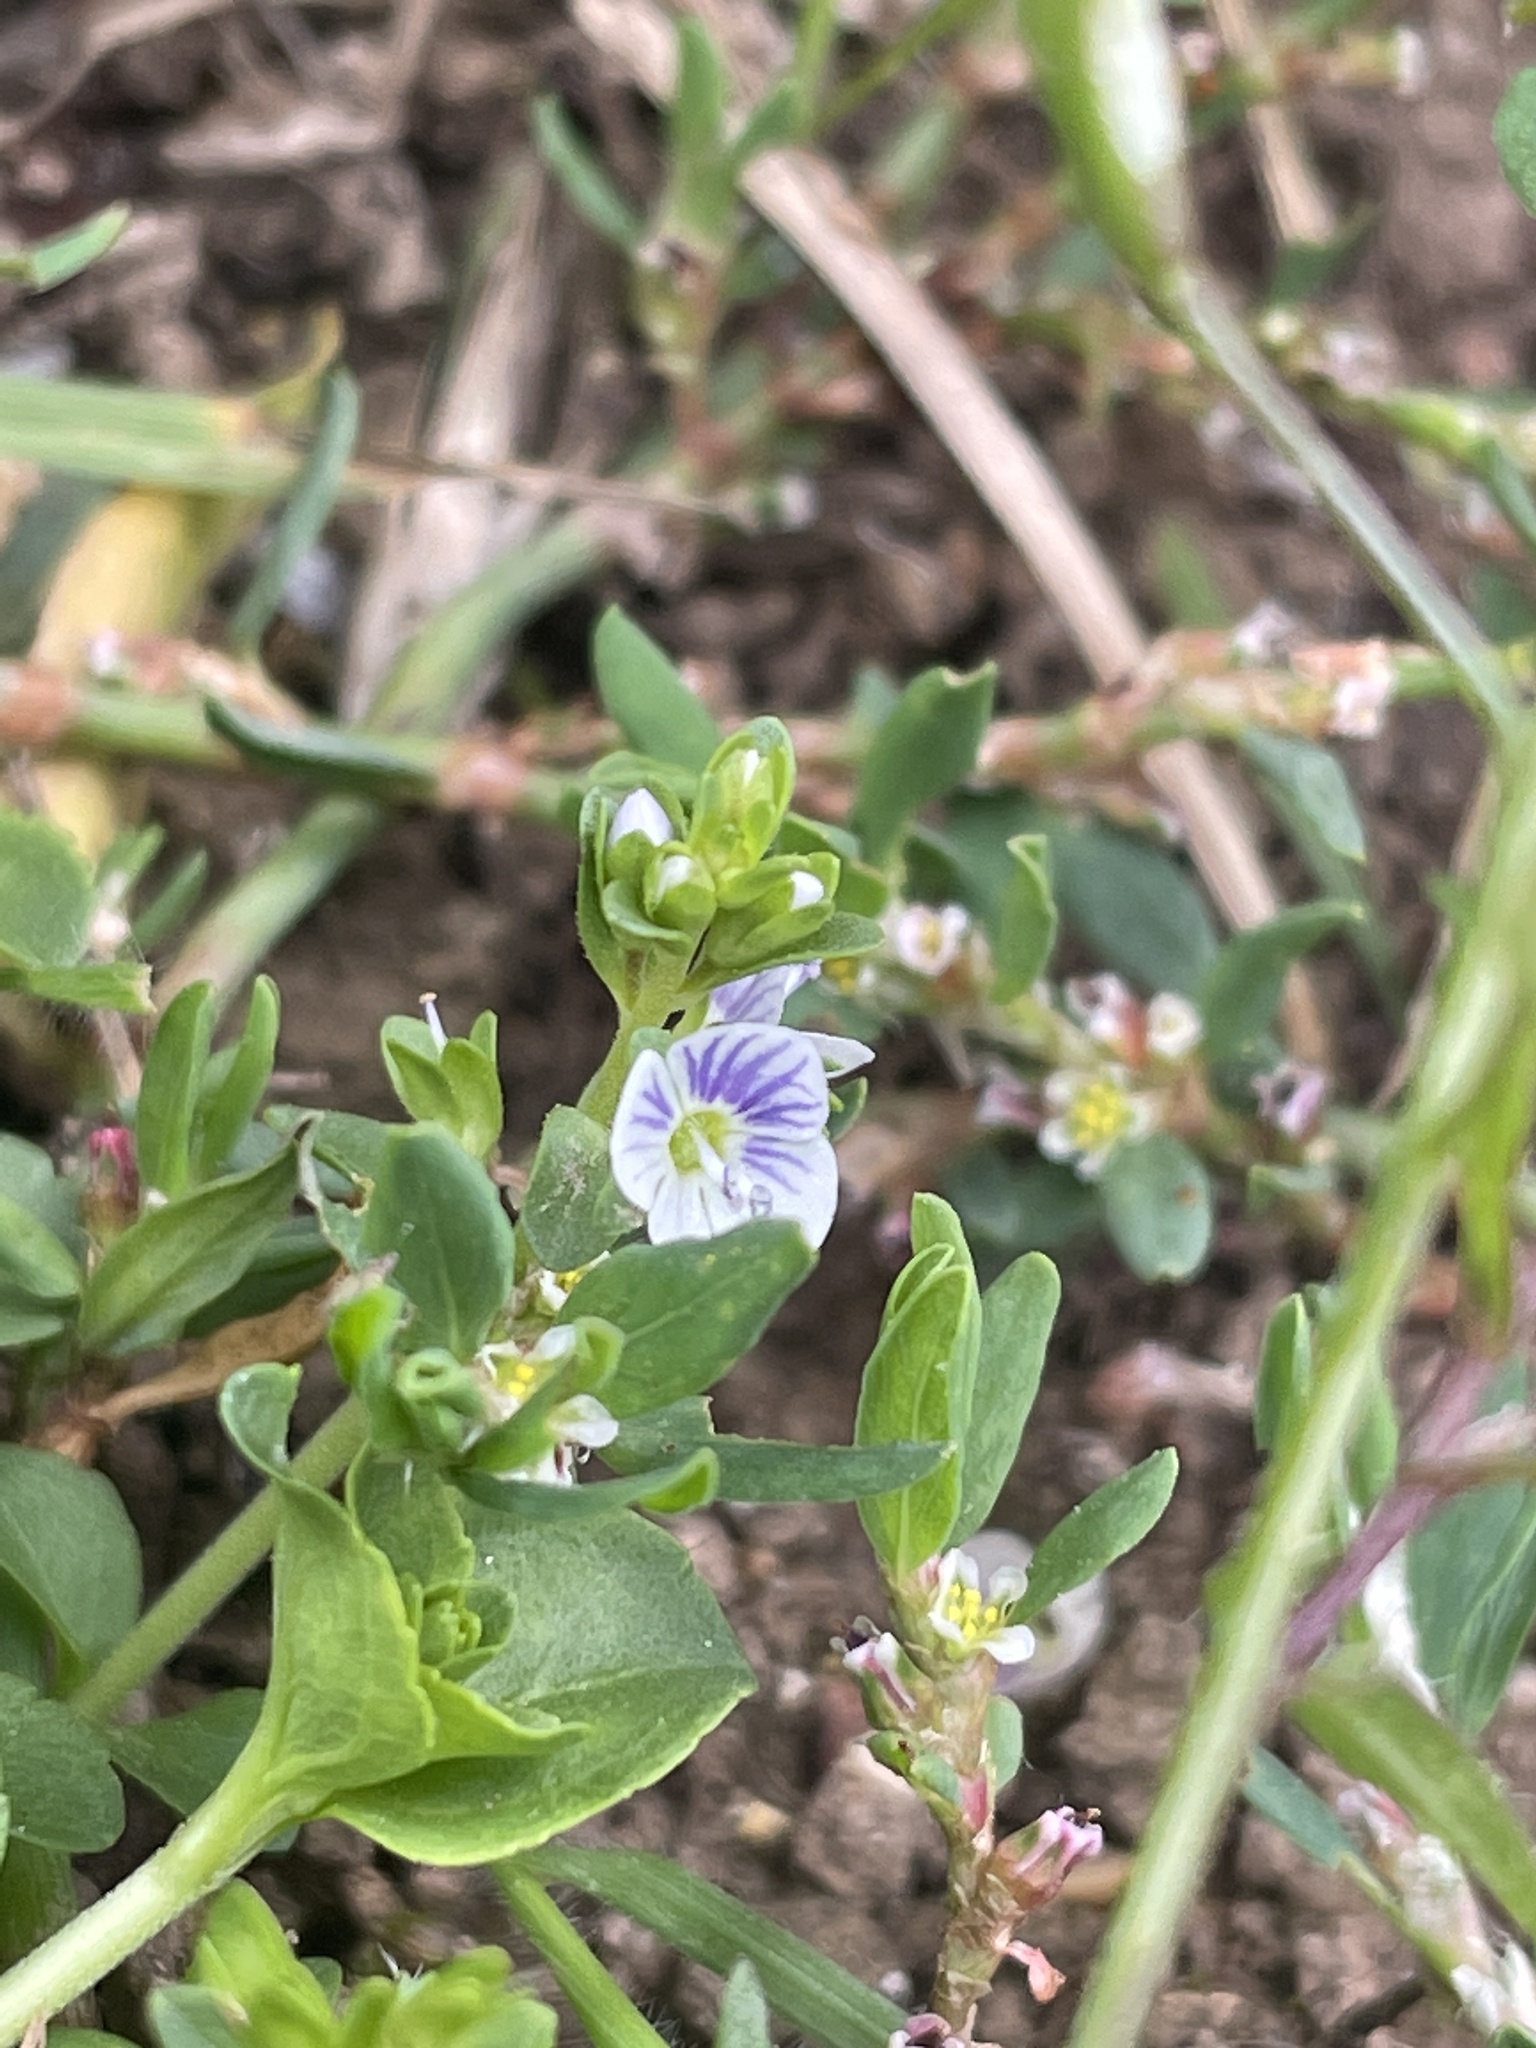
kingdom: Plantae
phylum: Tracheophyta
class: Magnoliopsida
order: Lamiales
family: Plantaginaceae
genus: Veronica
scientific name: Veronica serpyllifolia
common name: Thyme-leaved speedwell
